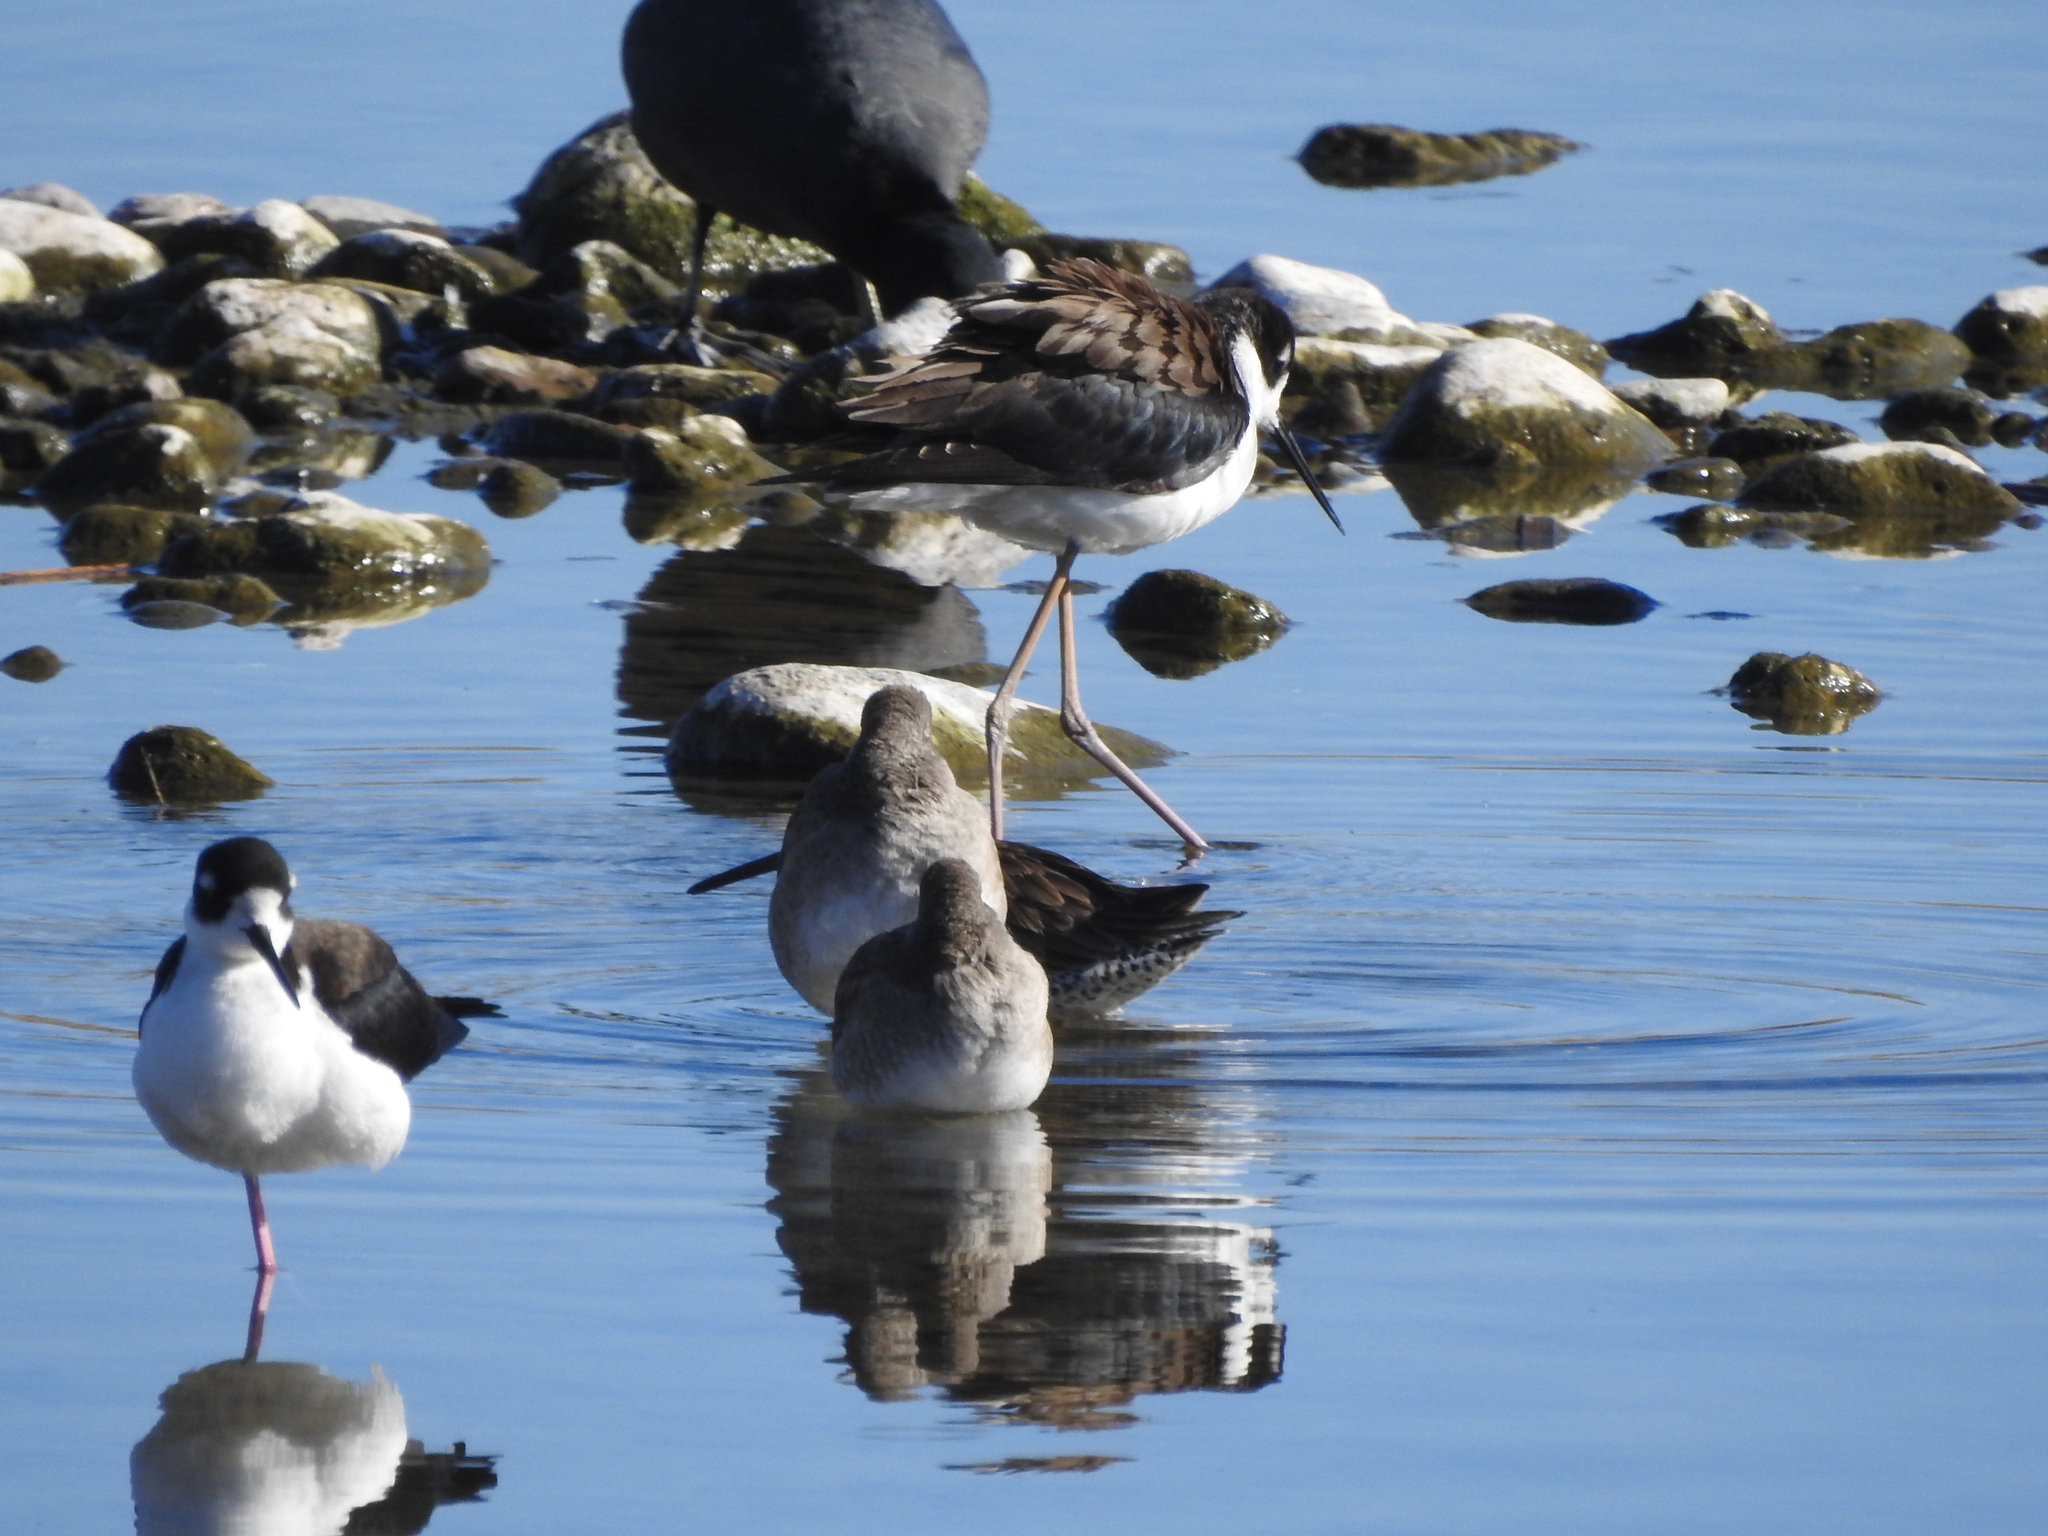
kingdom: Animalia
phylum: Chordata
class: Aves
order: Charadriiformes
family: Recurvirostridae
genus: Himantopus
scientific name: Himantopus mexicanus
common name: Black-necked stilt
